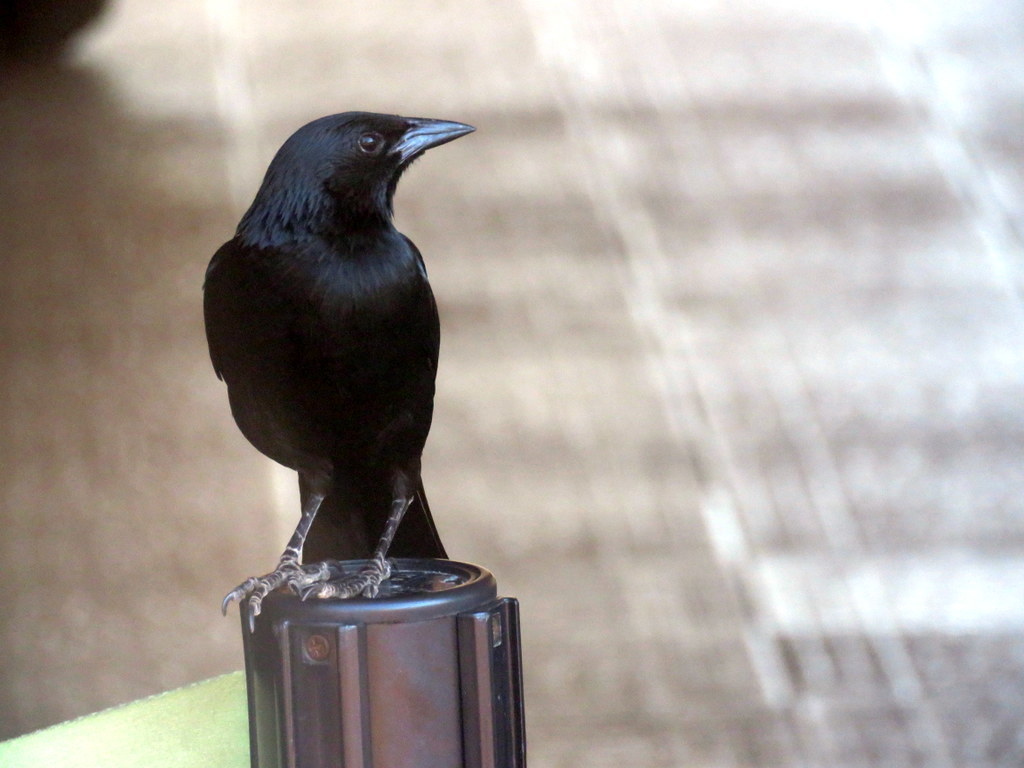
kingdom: Animalia
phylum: Chordata
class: Aves
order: Passeriformes
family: Icteridae
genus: Gnorimopsar
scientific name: Gnorimopsar chopi
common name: Chopi blackbird
